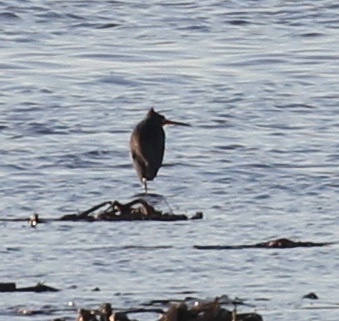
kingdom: Animalia
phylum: Chordata
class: Aves
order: Pelecaniformes
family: Ardeidae
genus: Egretta
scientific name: Egretta tricolor
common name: Tricolored heron
